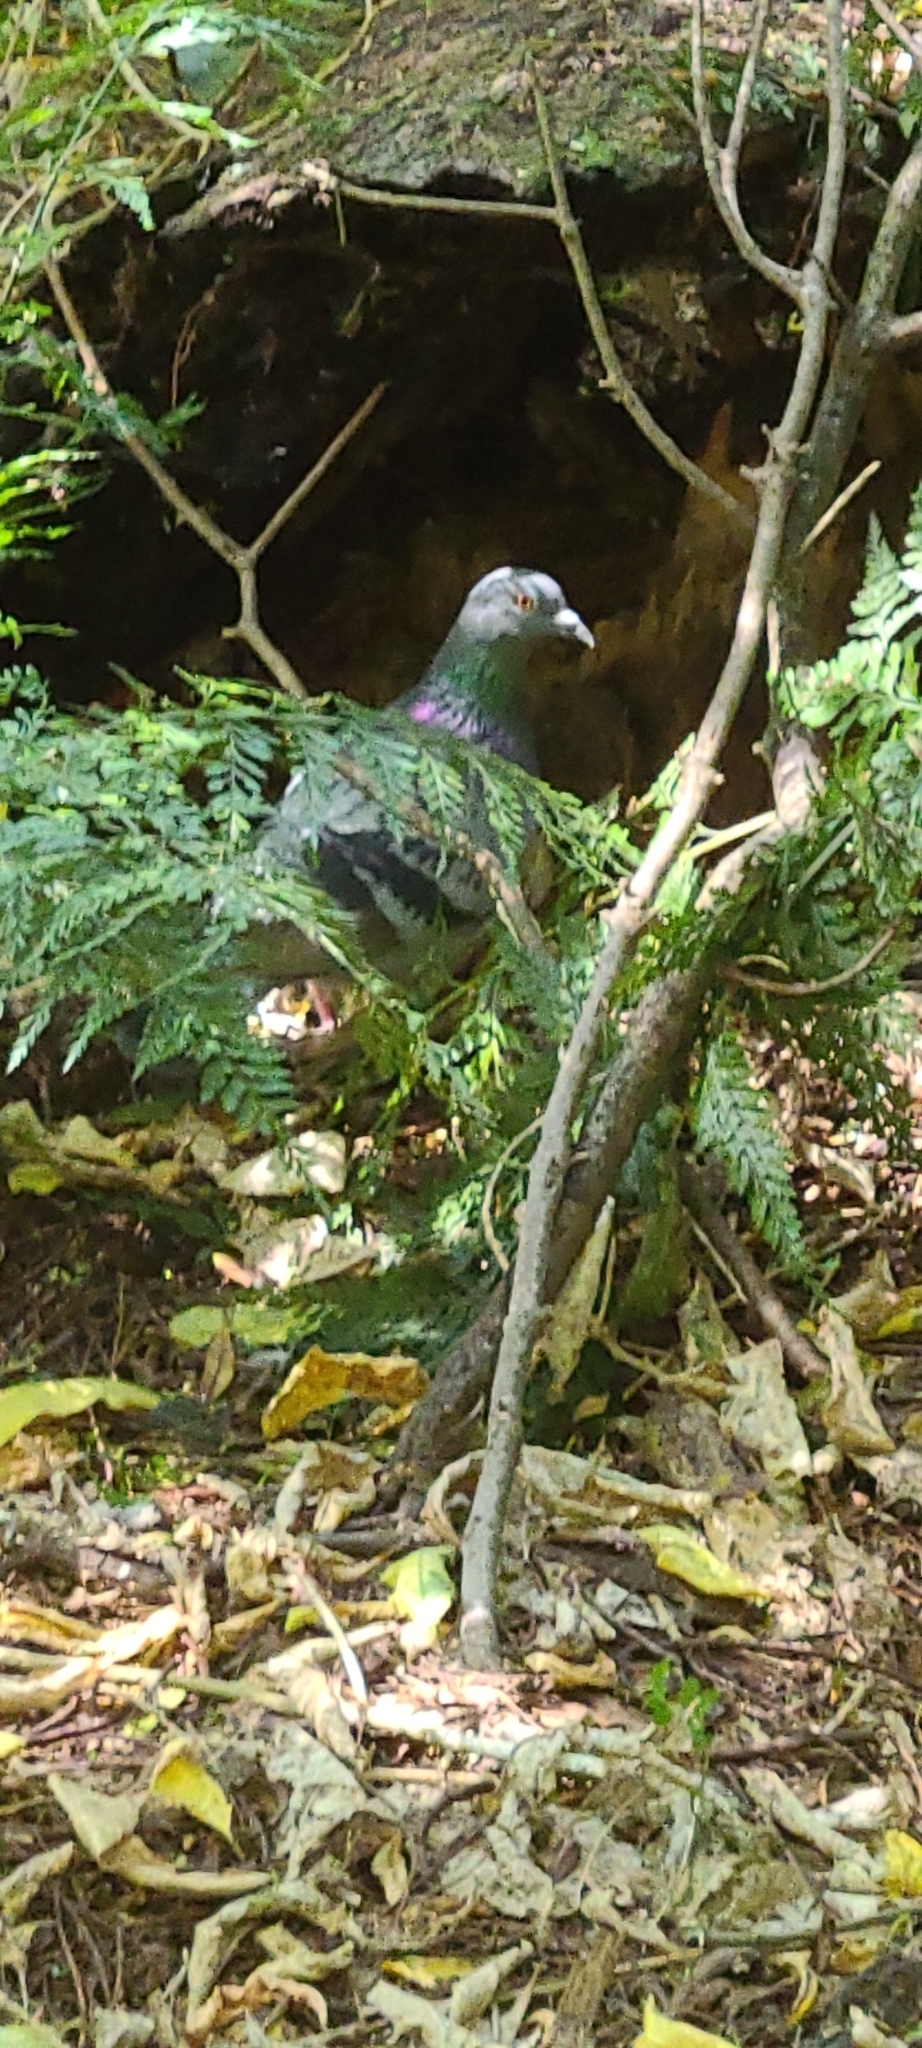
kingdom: Animalia
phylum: Chordata
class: Aves
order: Columbiformes
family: Columbidae
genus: Columba
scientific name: Columba livia
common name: Rock pigeon
